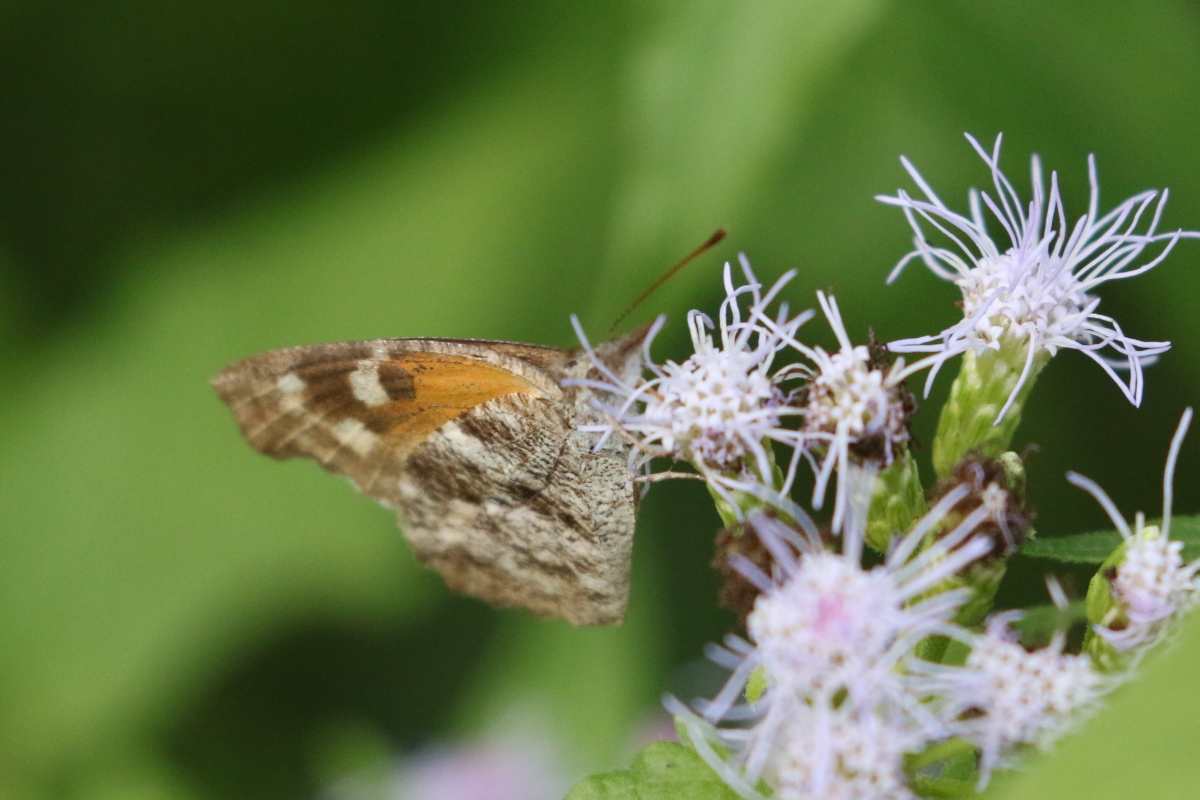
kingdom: Animalia
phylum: Arthropoda
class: Insecta
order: Lepidoptera
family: Nymphalidae
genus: Libytheana
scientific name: Libytheana carinenta
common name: American snout
